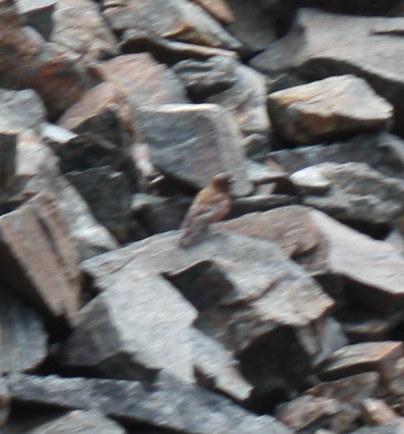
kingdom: Animalia
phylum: Chordata
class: Aves
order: Passeriformes
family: Fringillidae
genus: Leucosticte
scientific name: Leucosticte tephrocotis
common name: Gray-crowned rosy-finch
